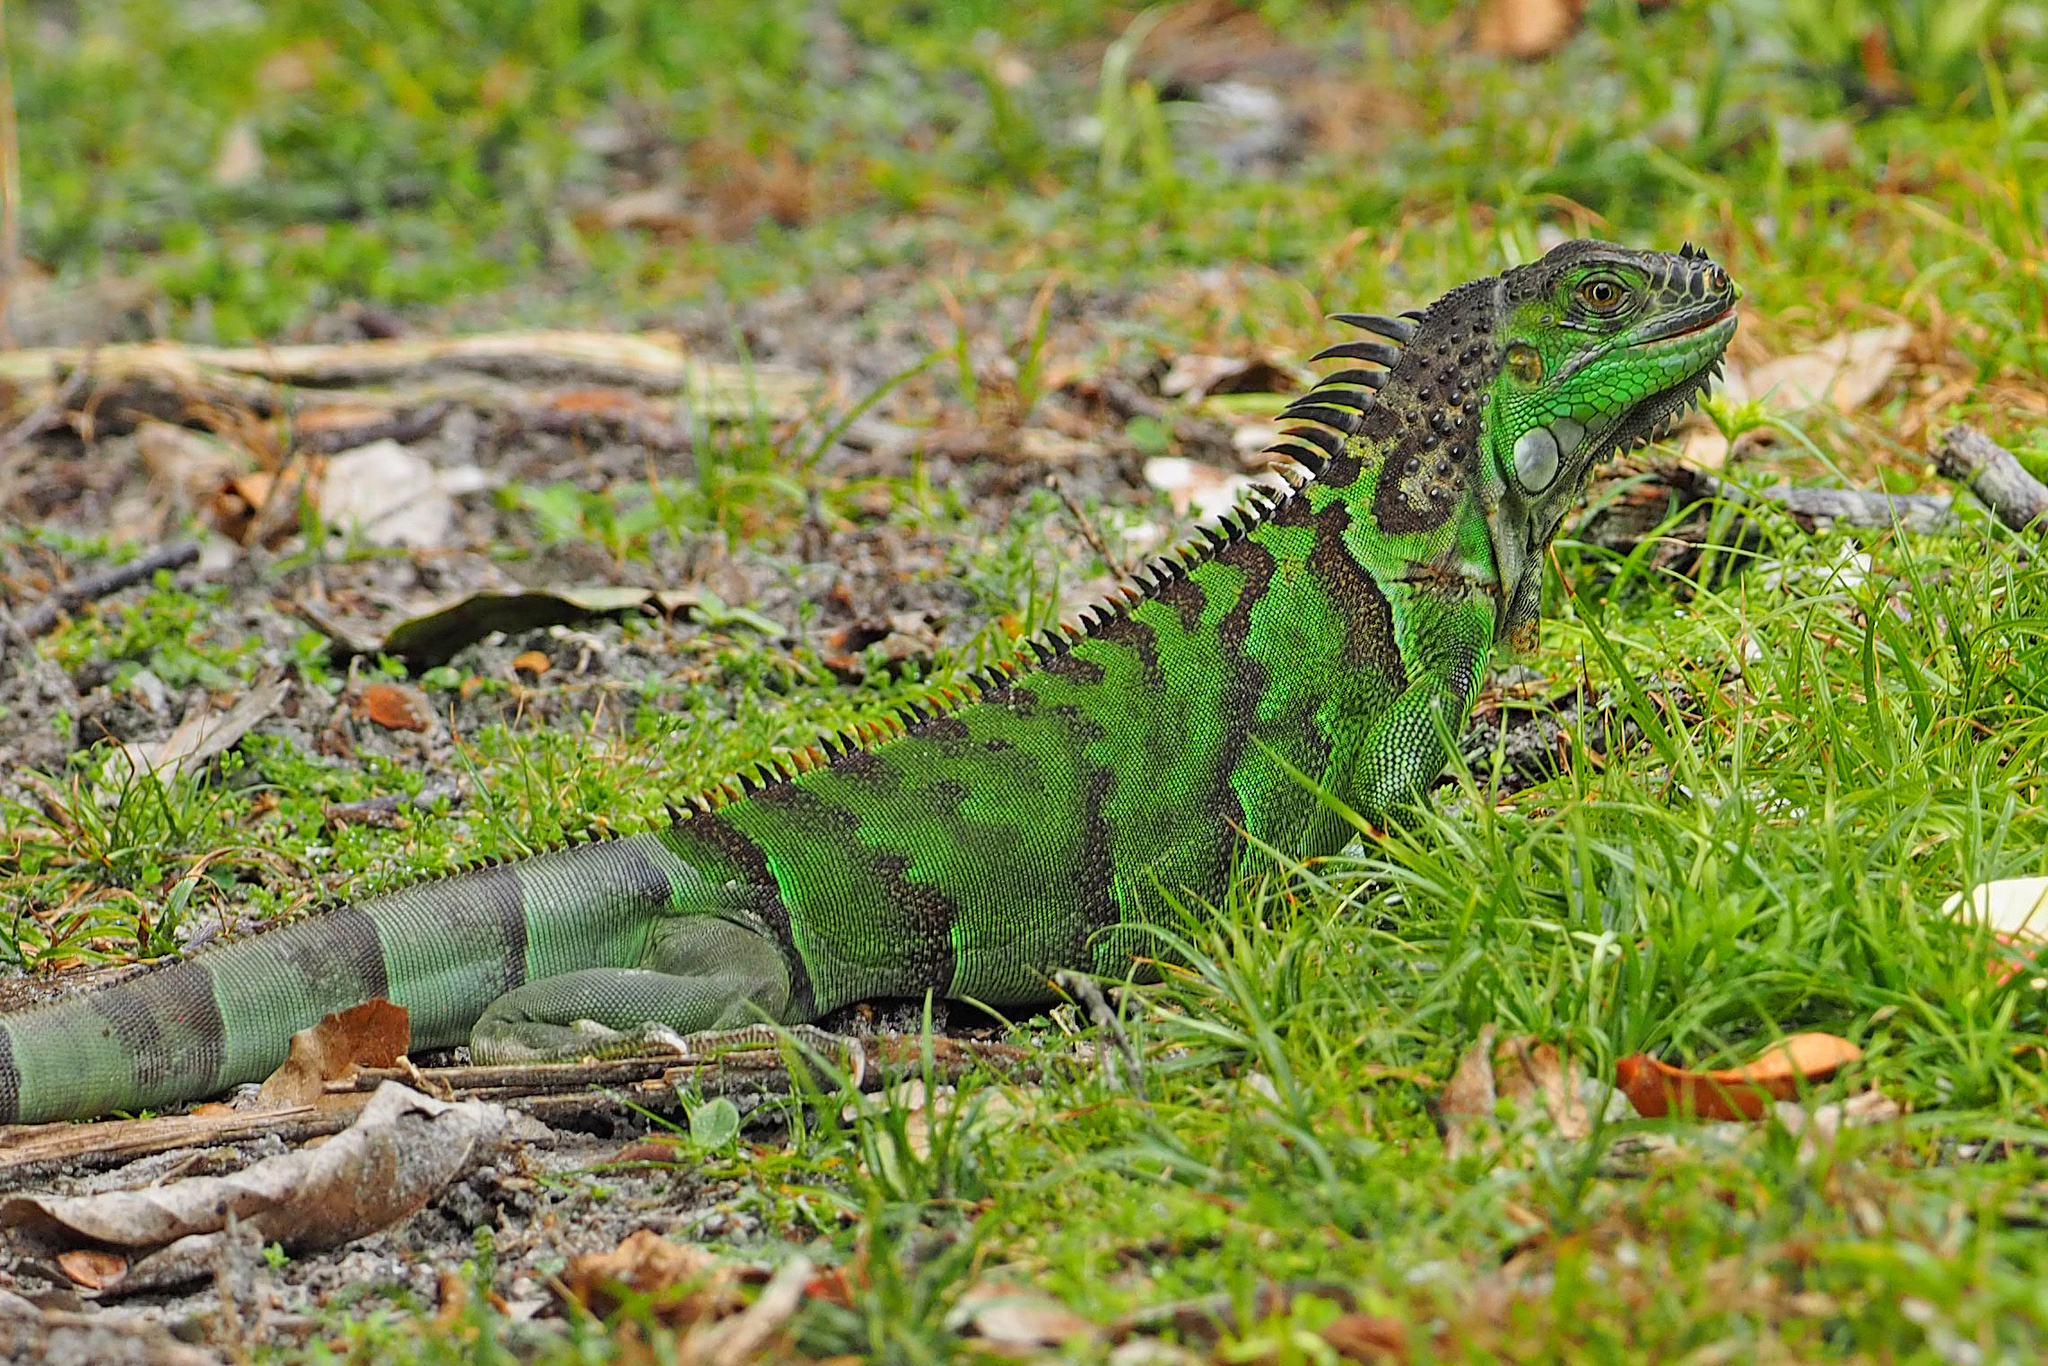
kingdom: Animalia
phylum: Chordata
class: Squamata
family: Iguanidae
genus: Iguana
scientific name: Iguana iguana
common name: Green iguana
